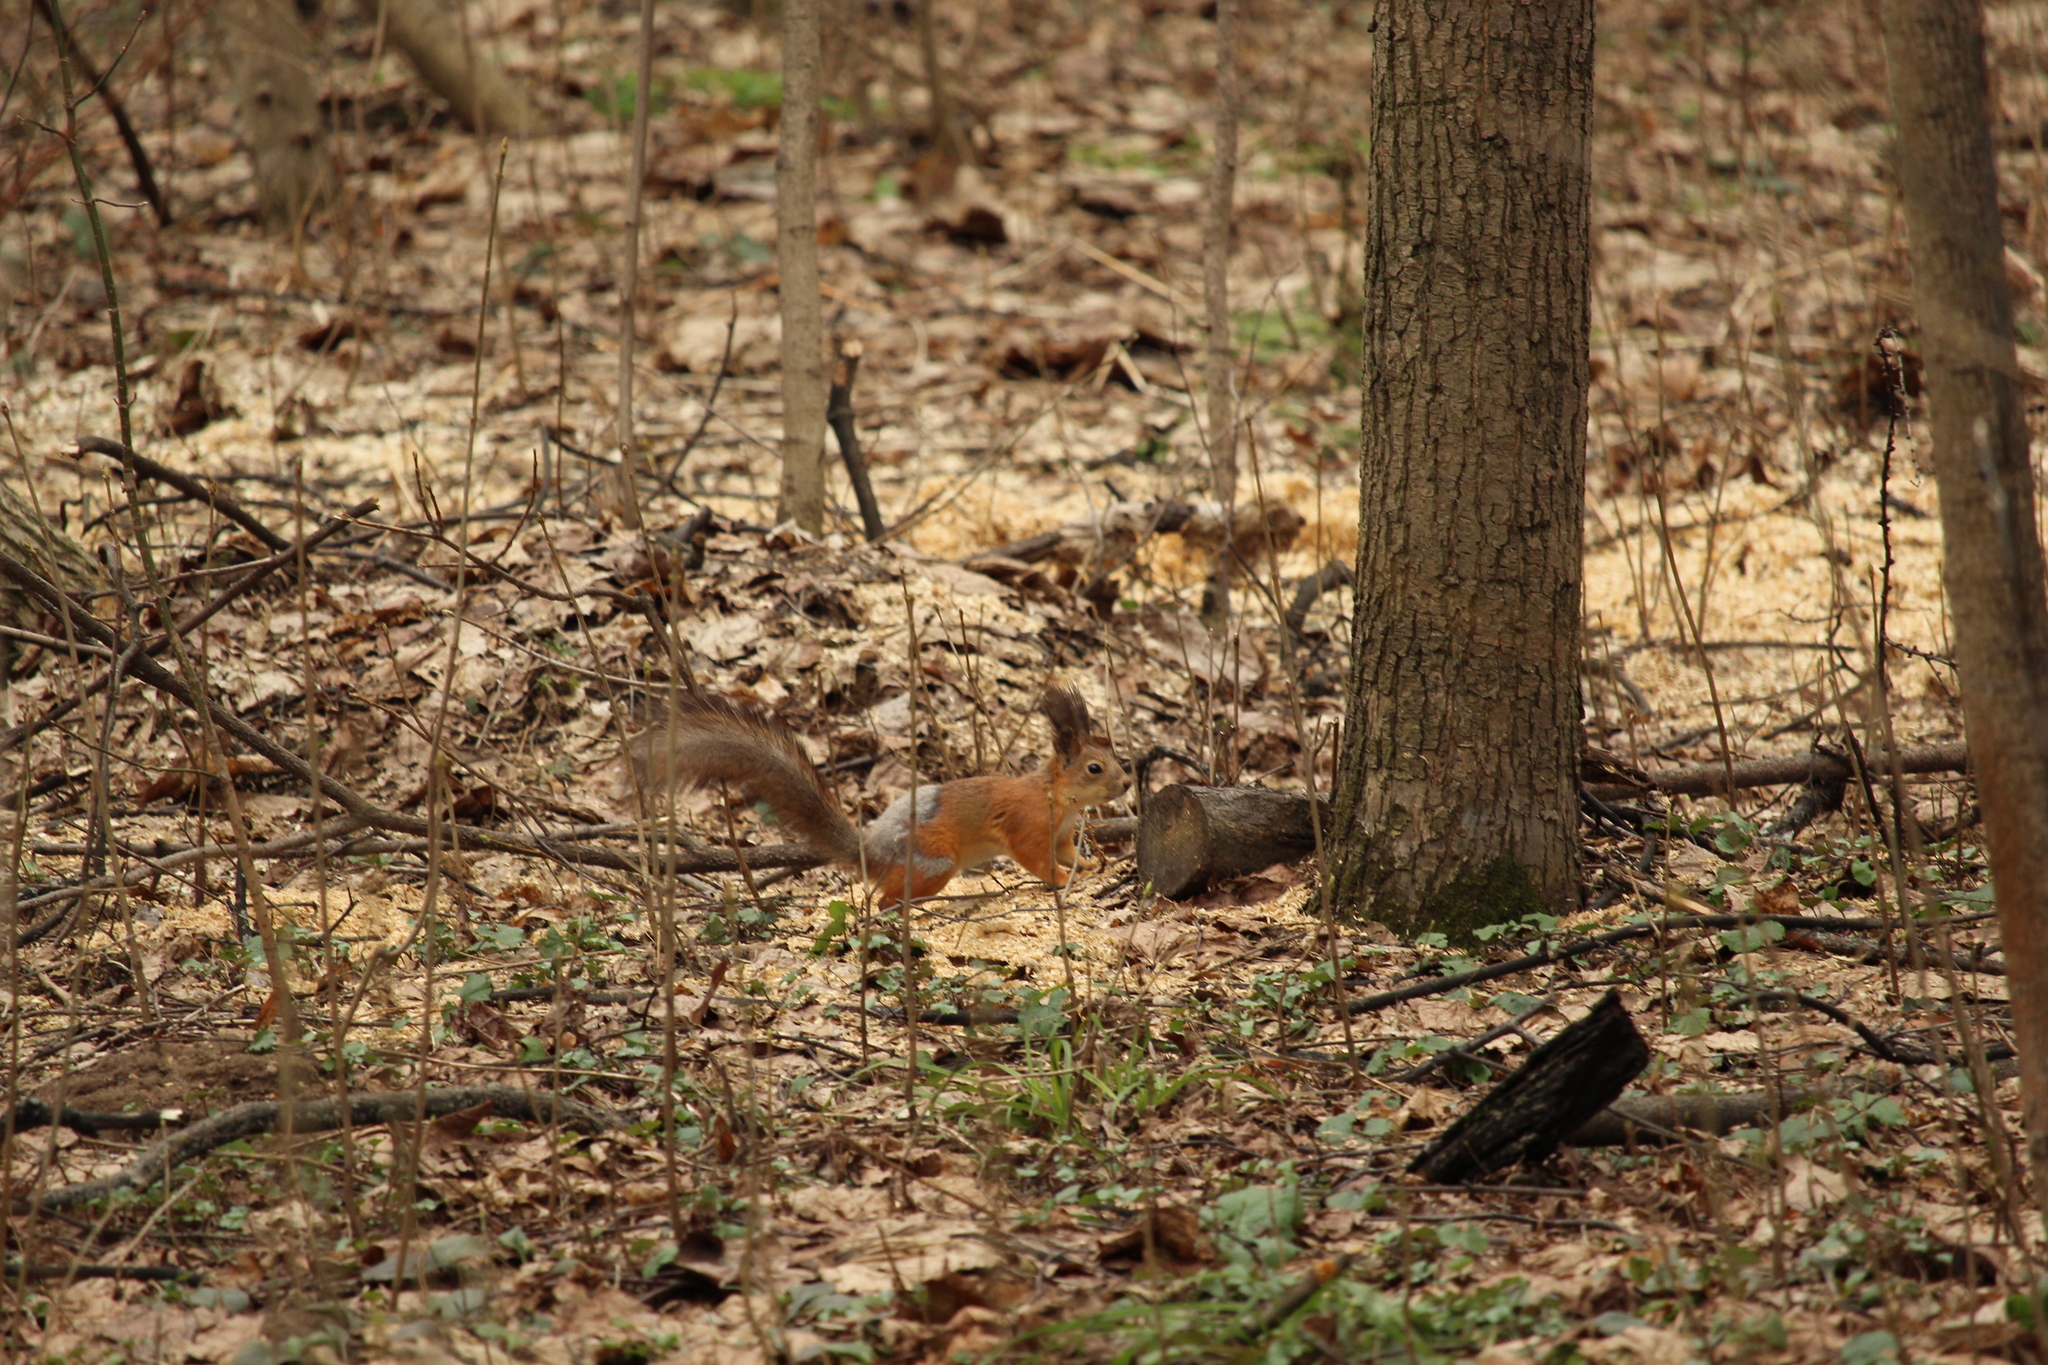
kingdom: Animalia
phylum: Chordata
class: Mammalia
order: Rodentia
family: Sciuridae
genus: Sciurus
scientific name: Sciurus vulgaris
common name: Eurasian red squirrel
